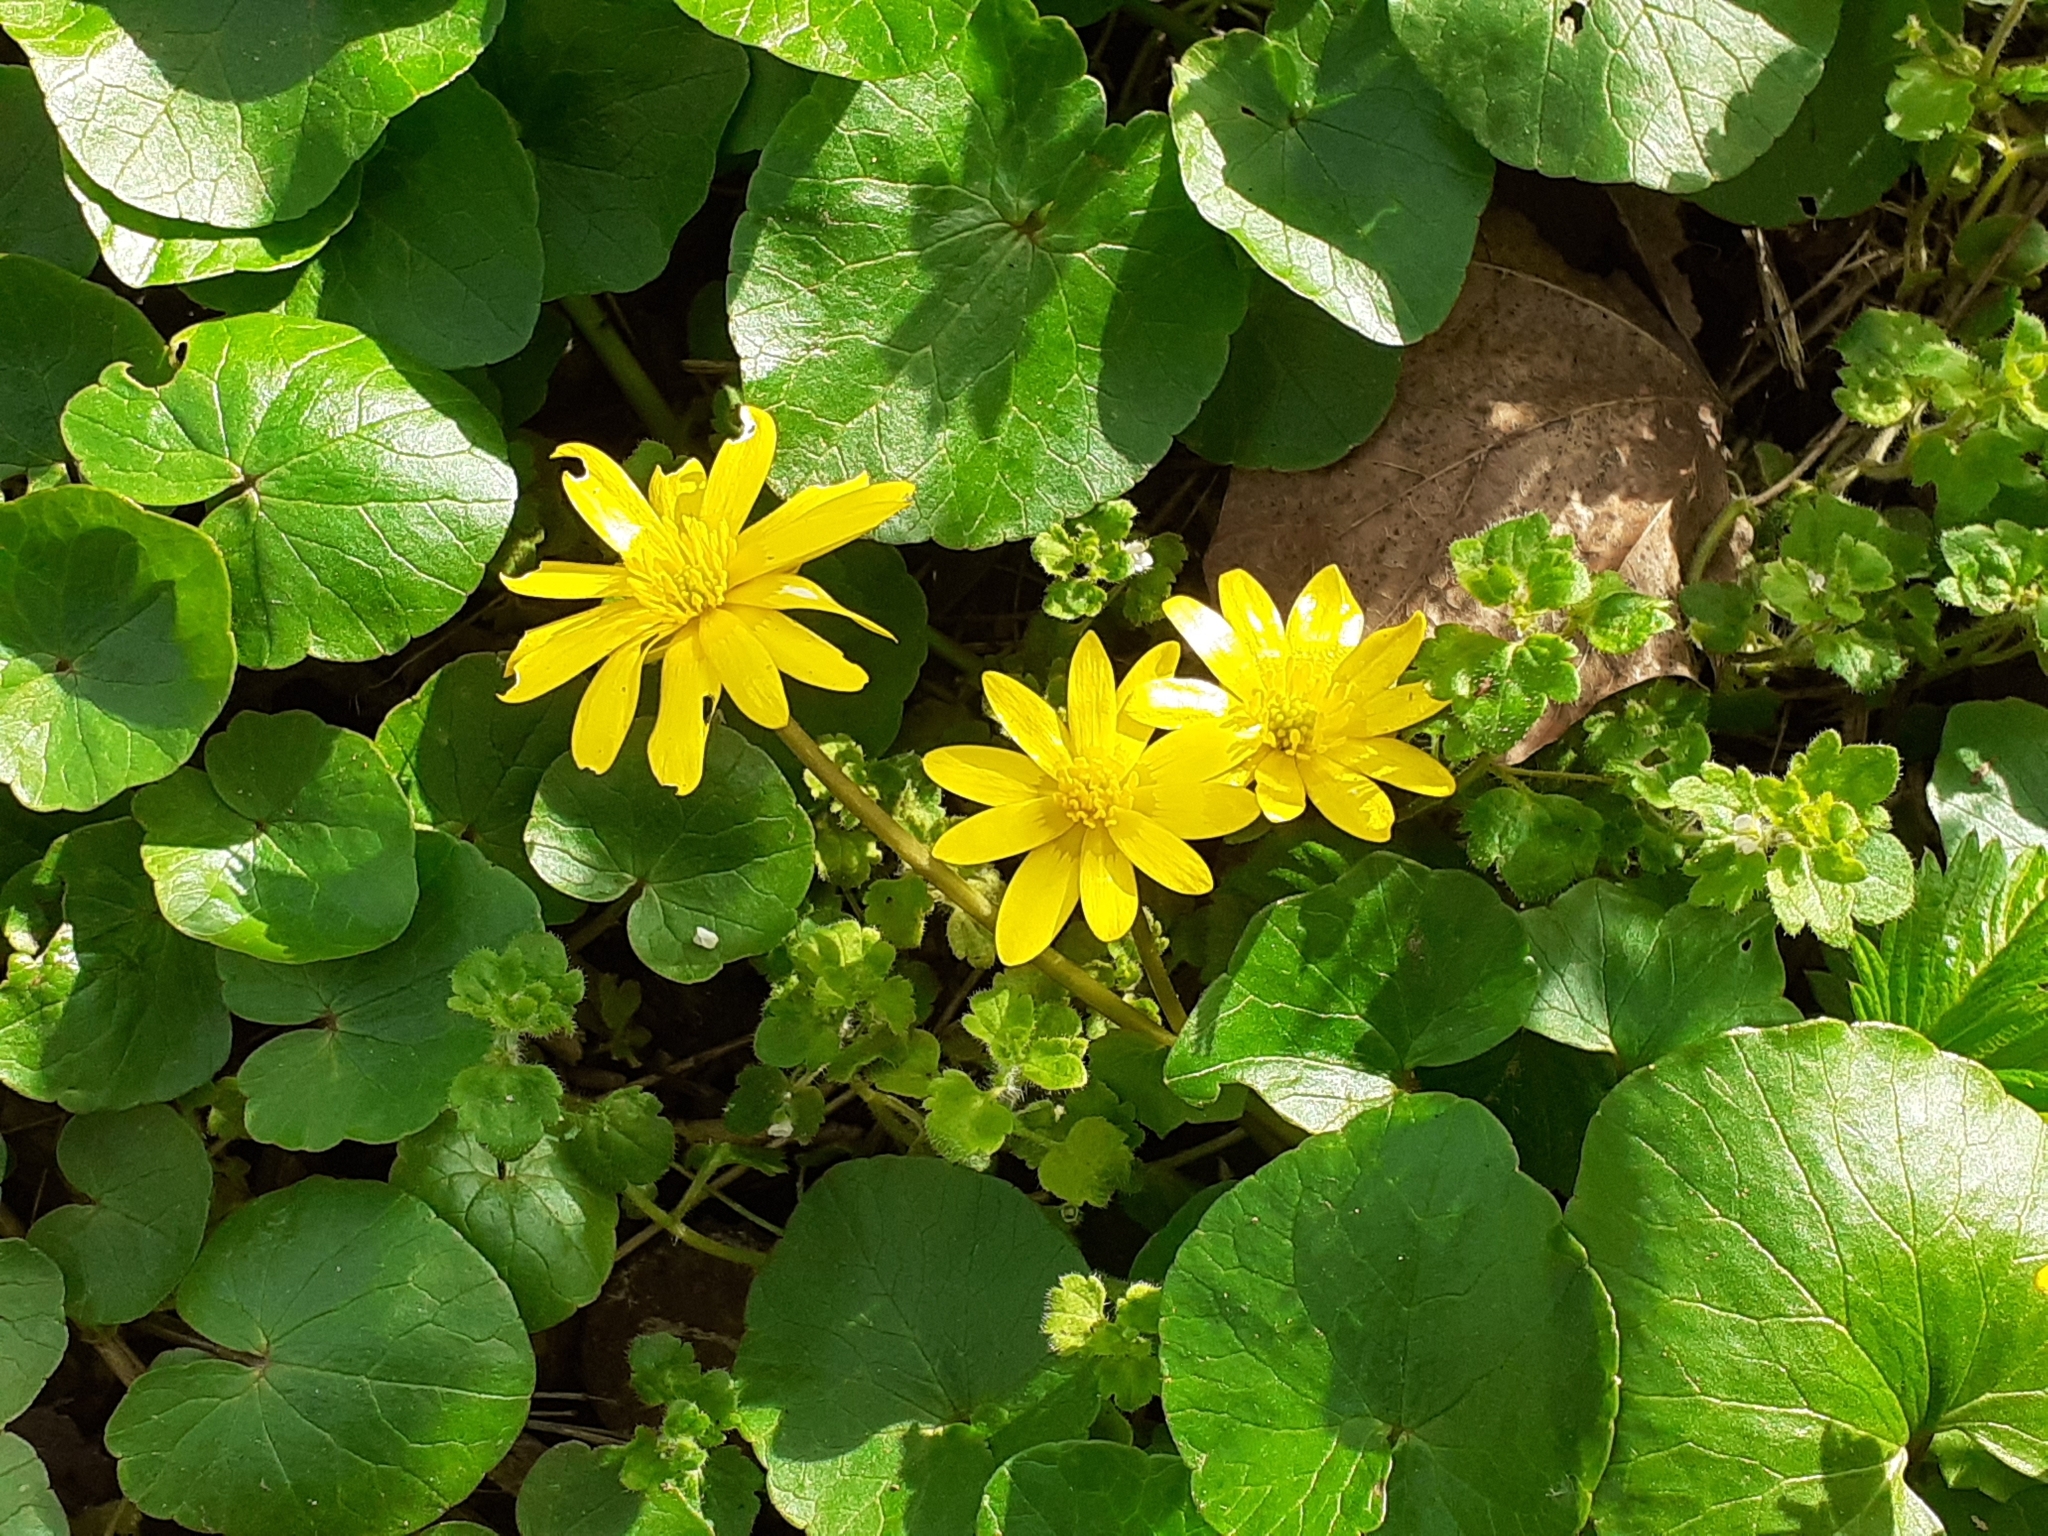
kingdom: Plantae
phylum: Tracheophyta
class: Magnoliopsida
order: Ranunculales
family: Ranunculaceae
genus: Ficaria
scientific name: Ficaria verna
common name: Lesser celandine
